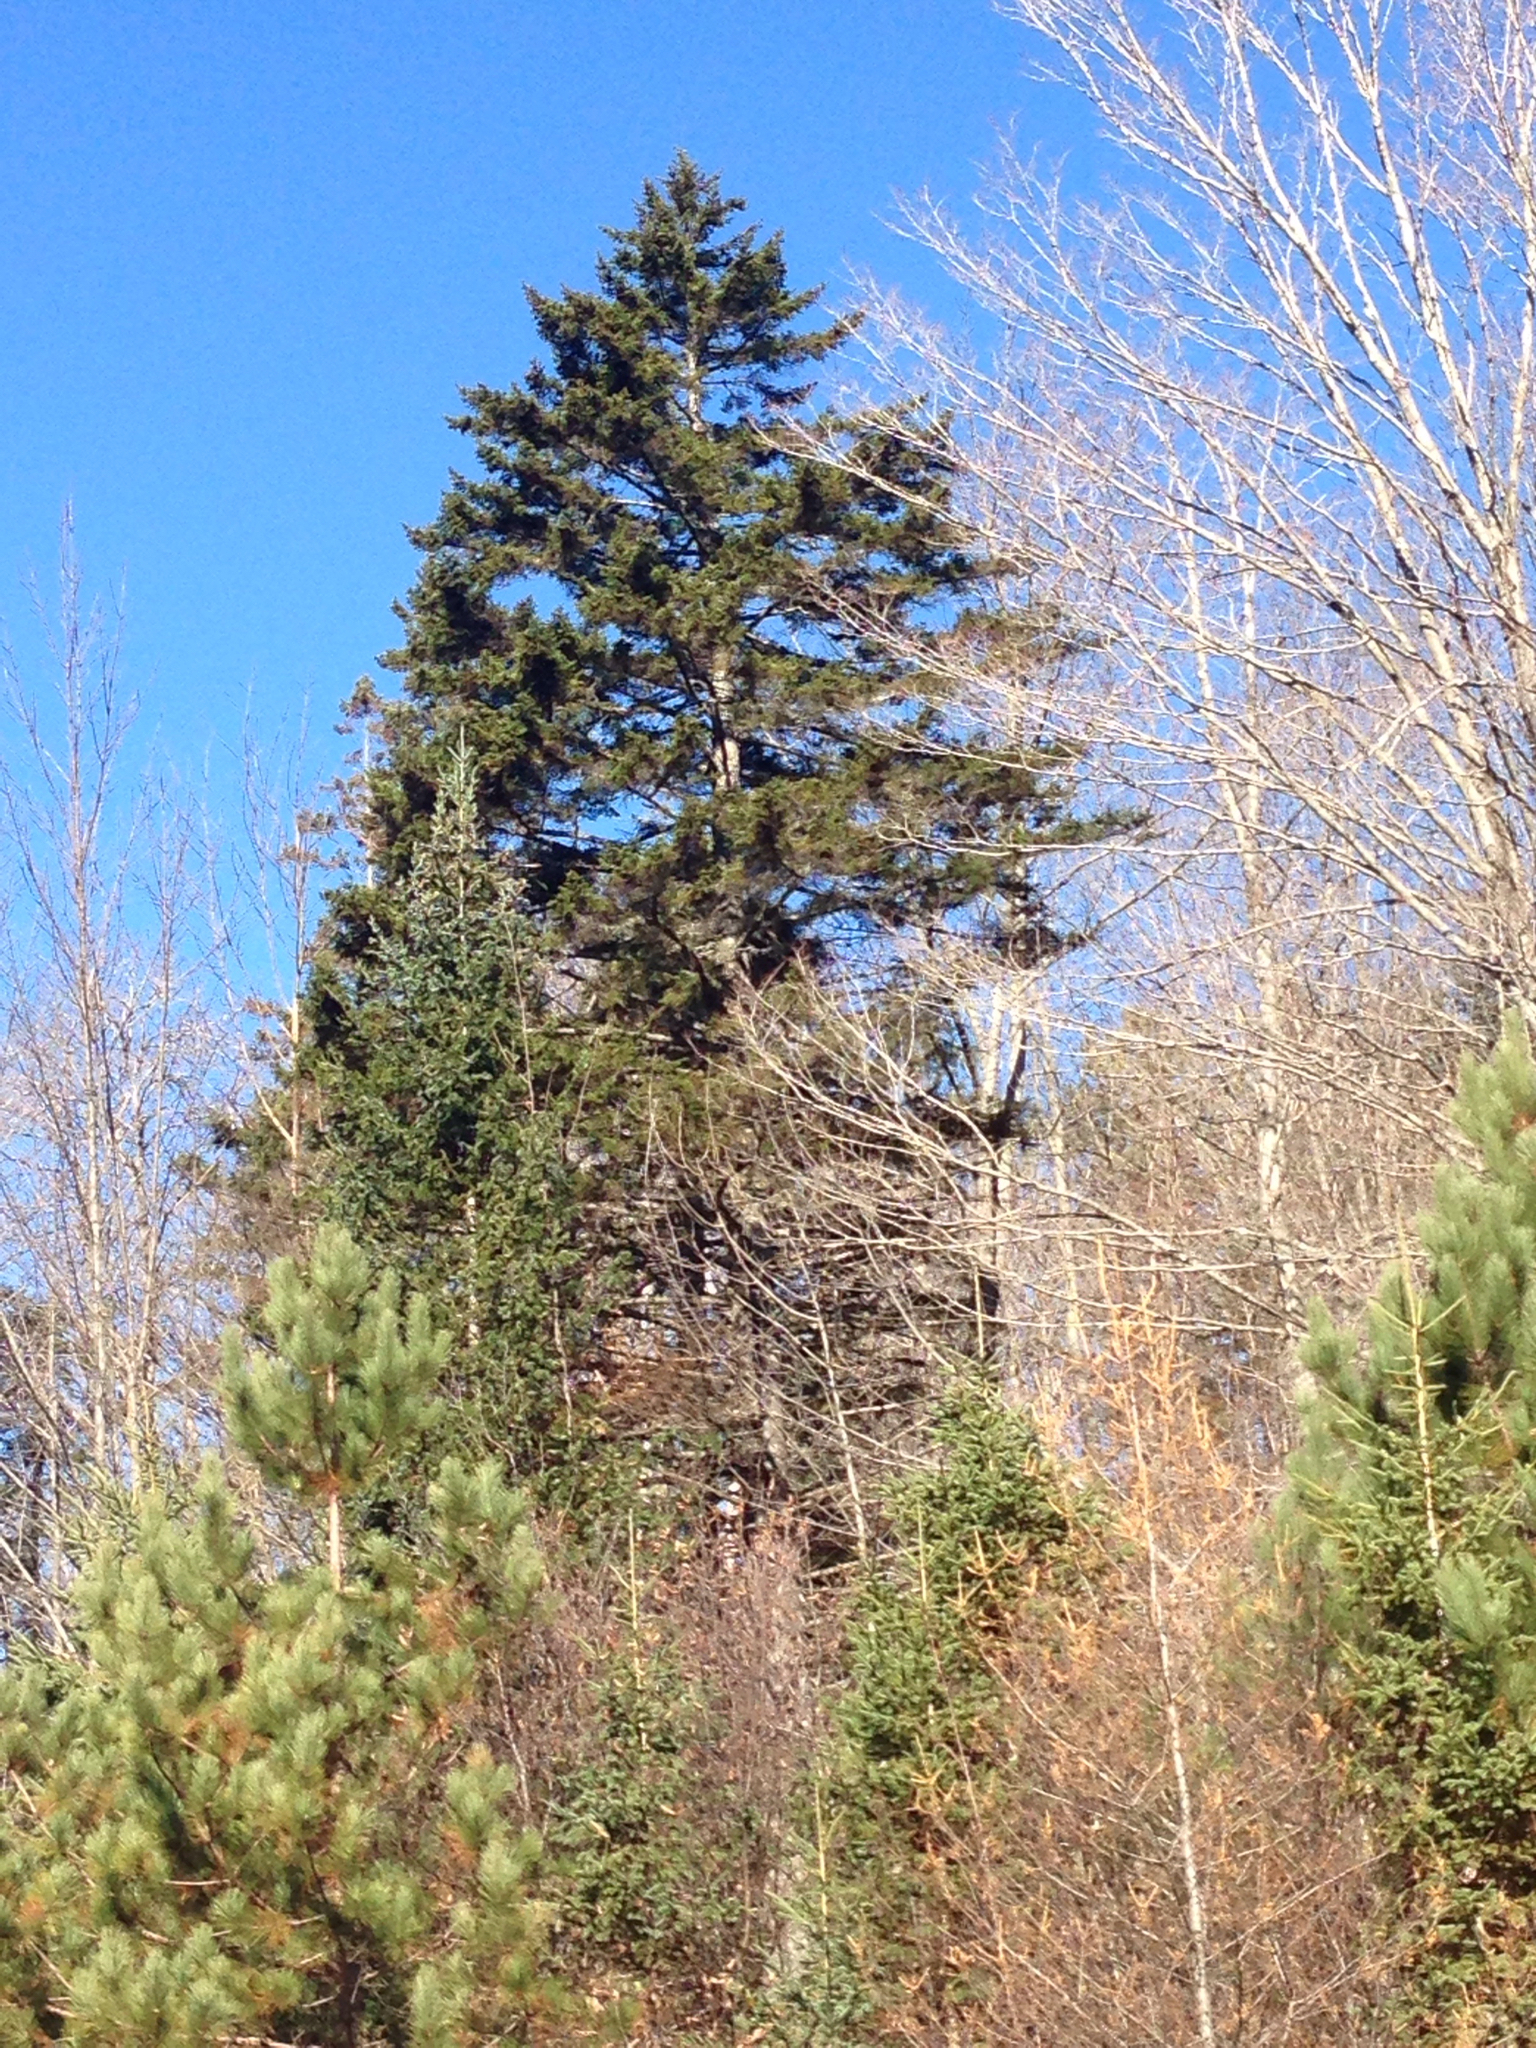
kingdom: Plantae
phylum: Tracheophyta
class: Pinopsida
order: Pinales
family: Pinaceae
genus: Picea
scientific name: Picea rubens
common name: Red spruce
